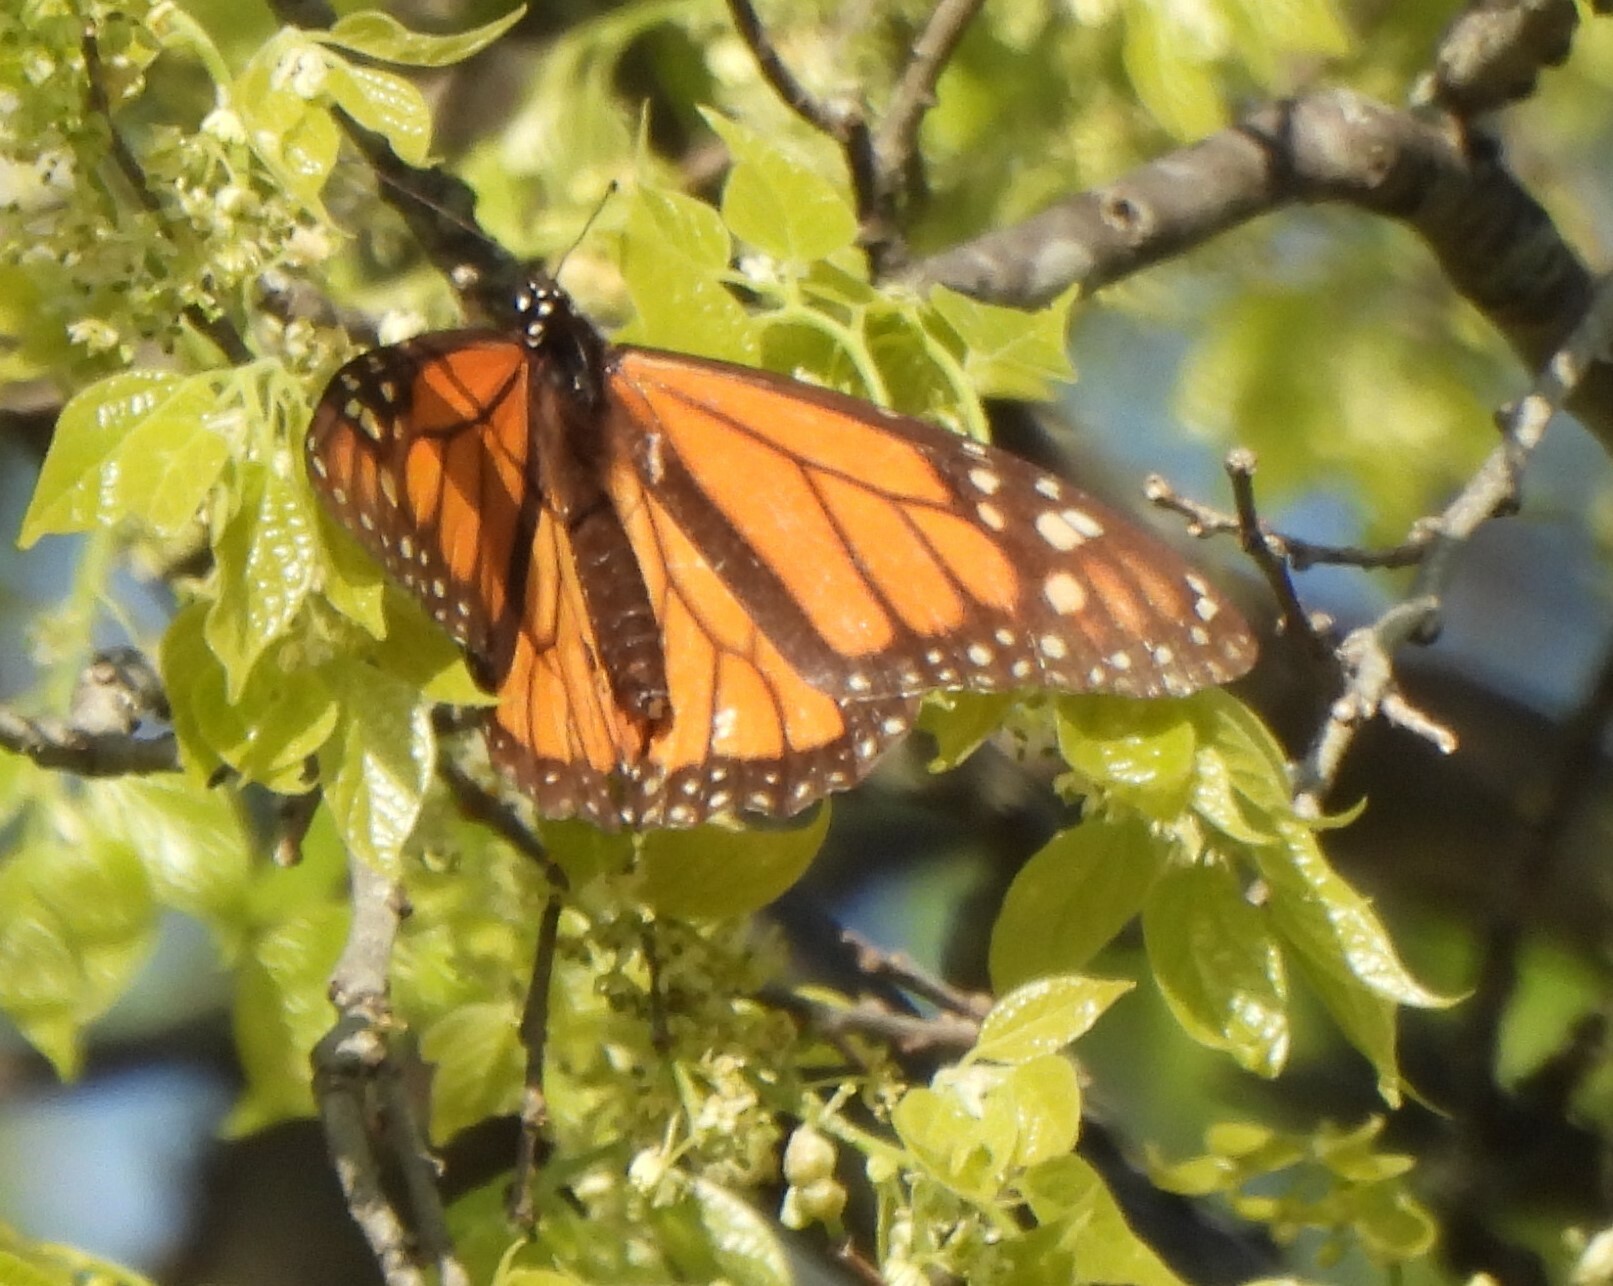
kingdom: Animalia
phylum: Arthropoda
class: Insecta
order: Lepidoptera
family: Nymphalidae
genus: Danaus
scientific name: Danaus plexippus
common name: Monarch
